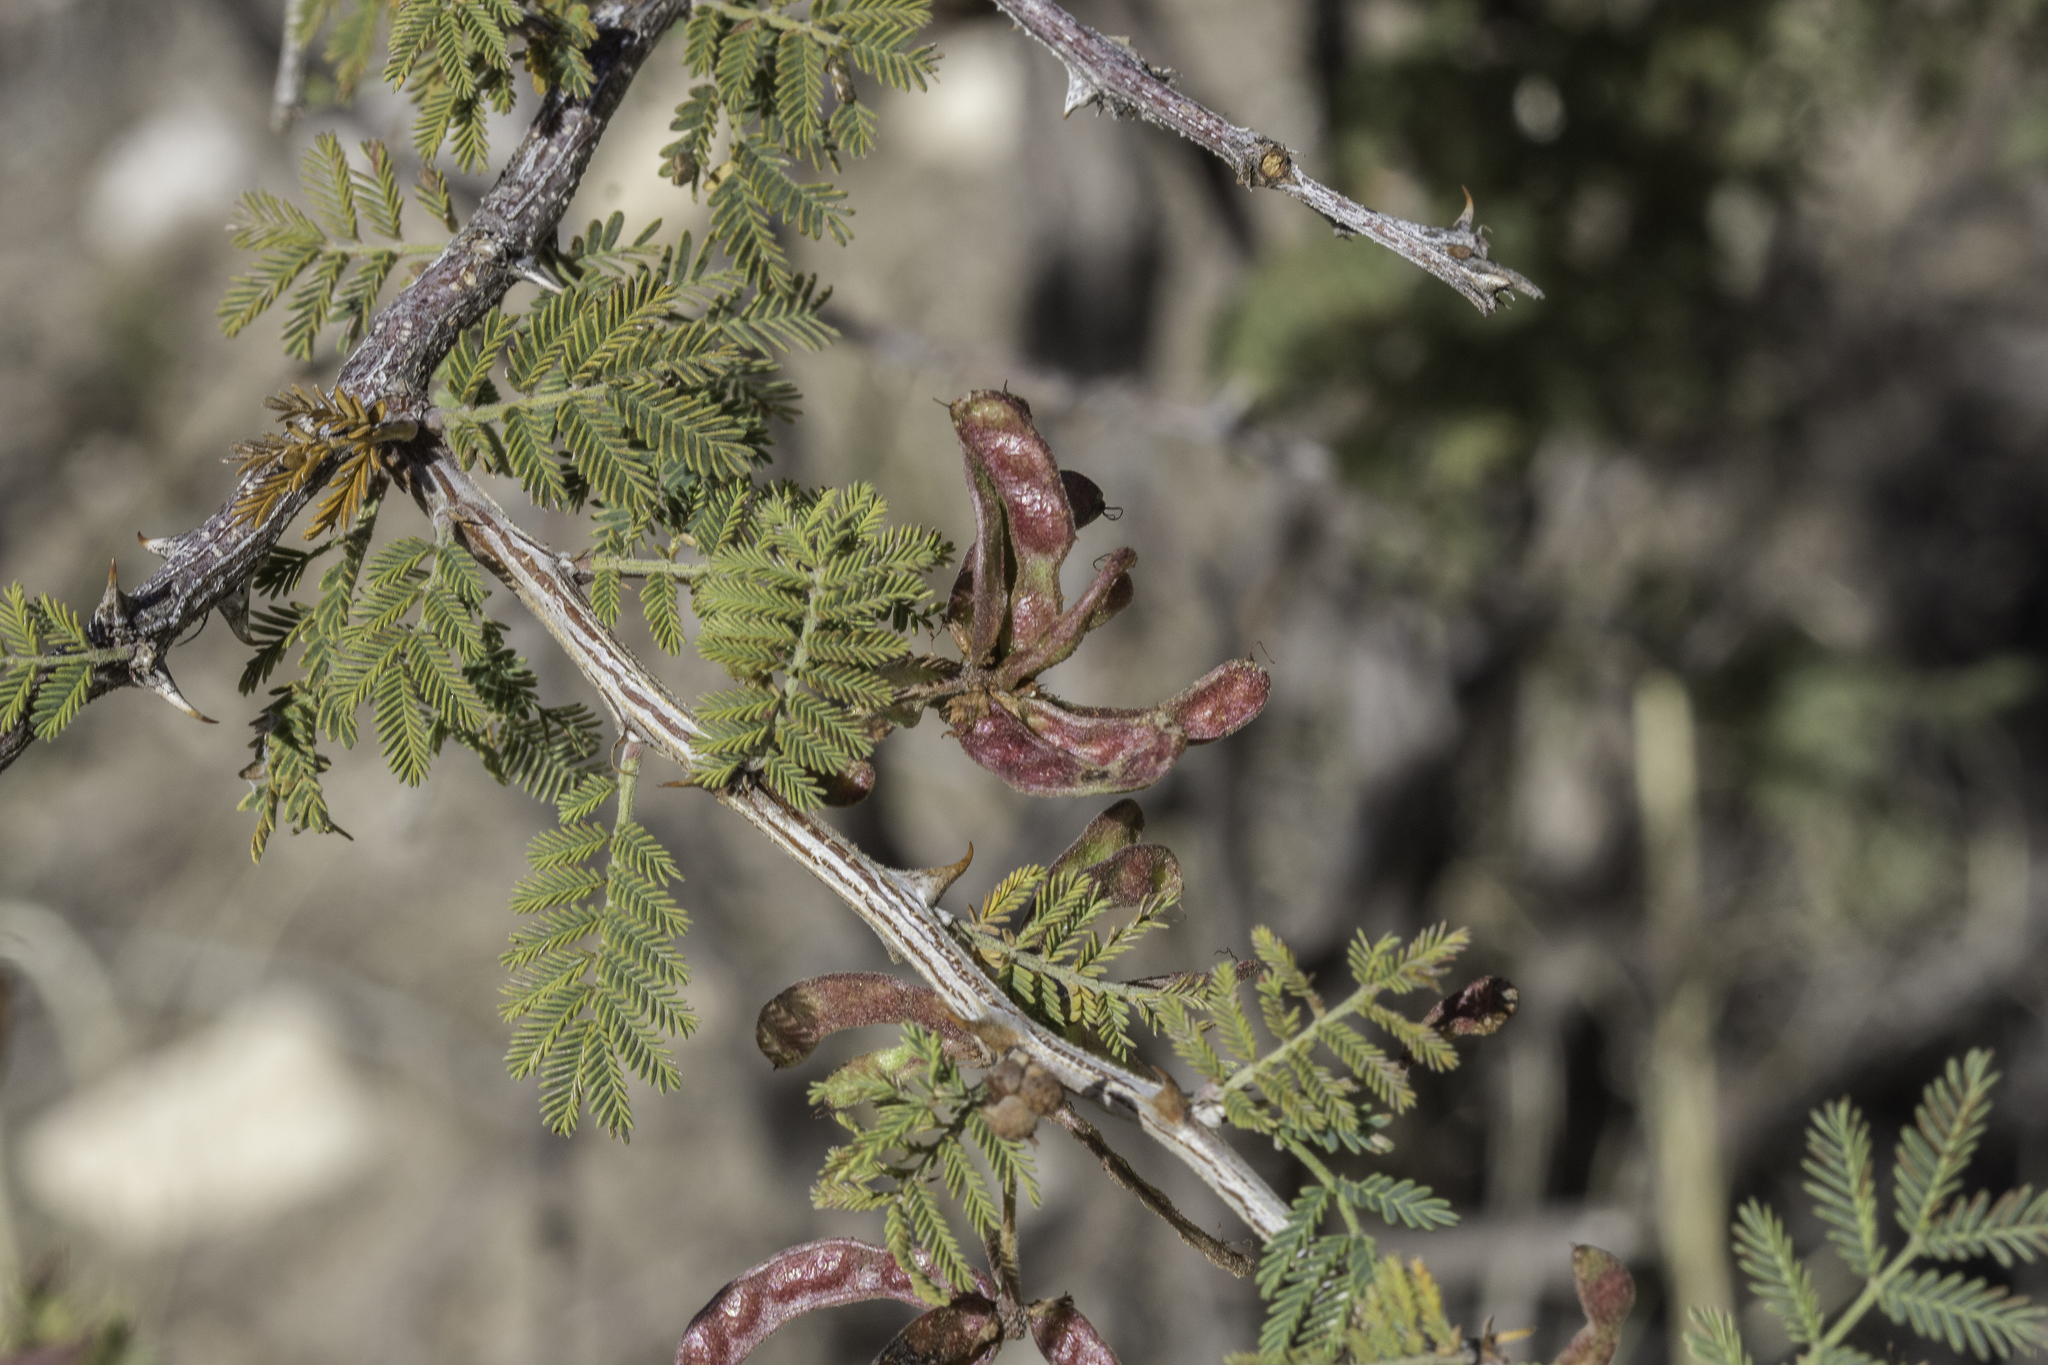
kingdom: Plantae
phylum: Tracheophyta
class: Magnoliopsida
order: Fabales
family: Fabaceae
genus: Mimosa
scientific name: Mimosa aculeaticarpa
